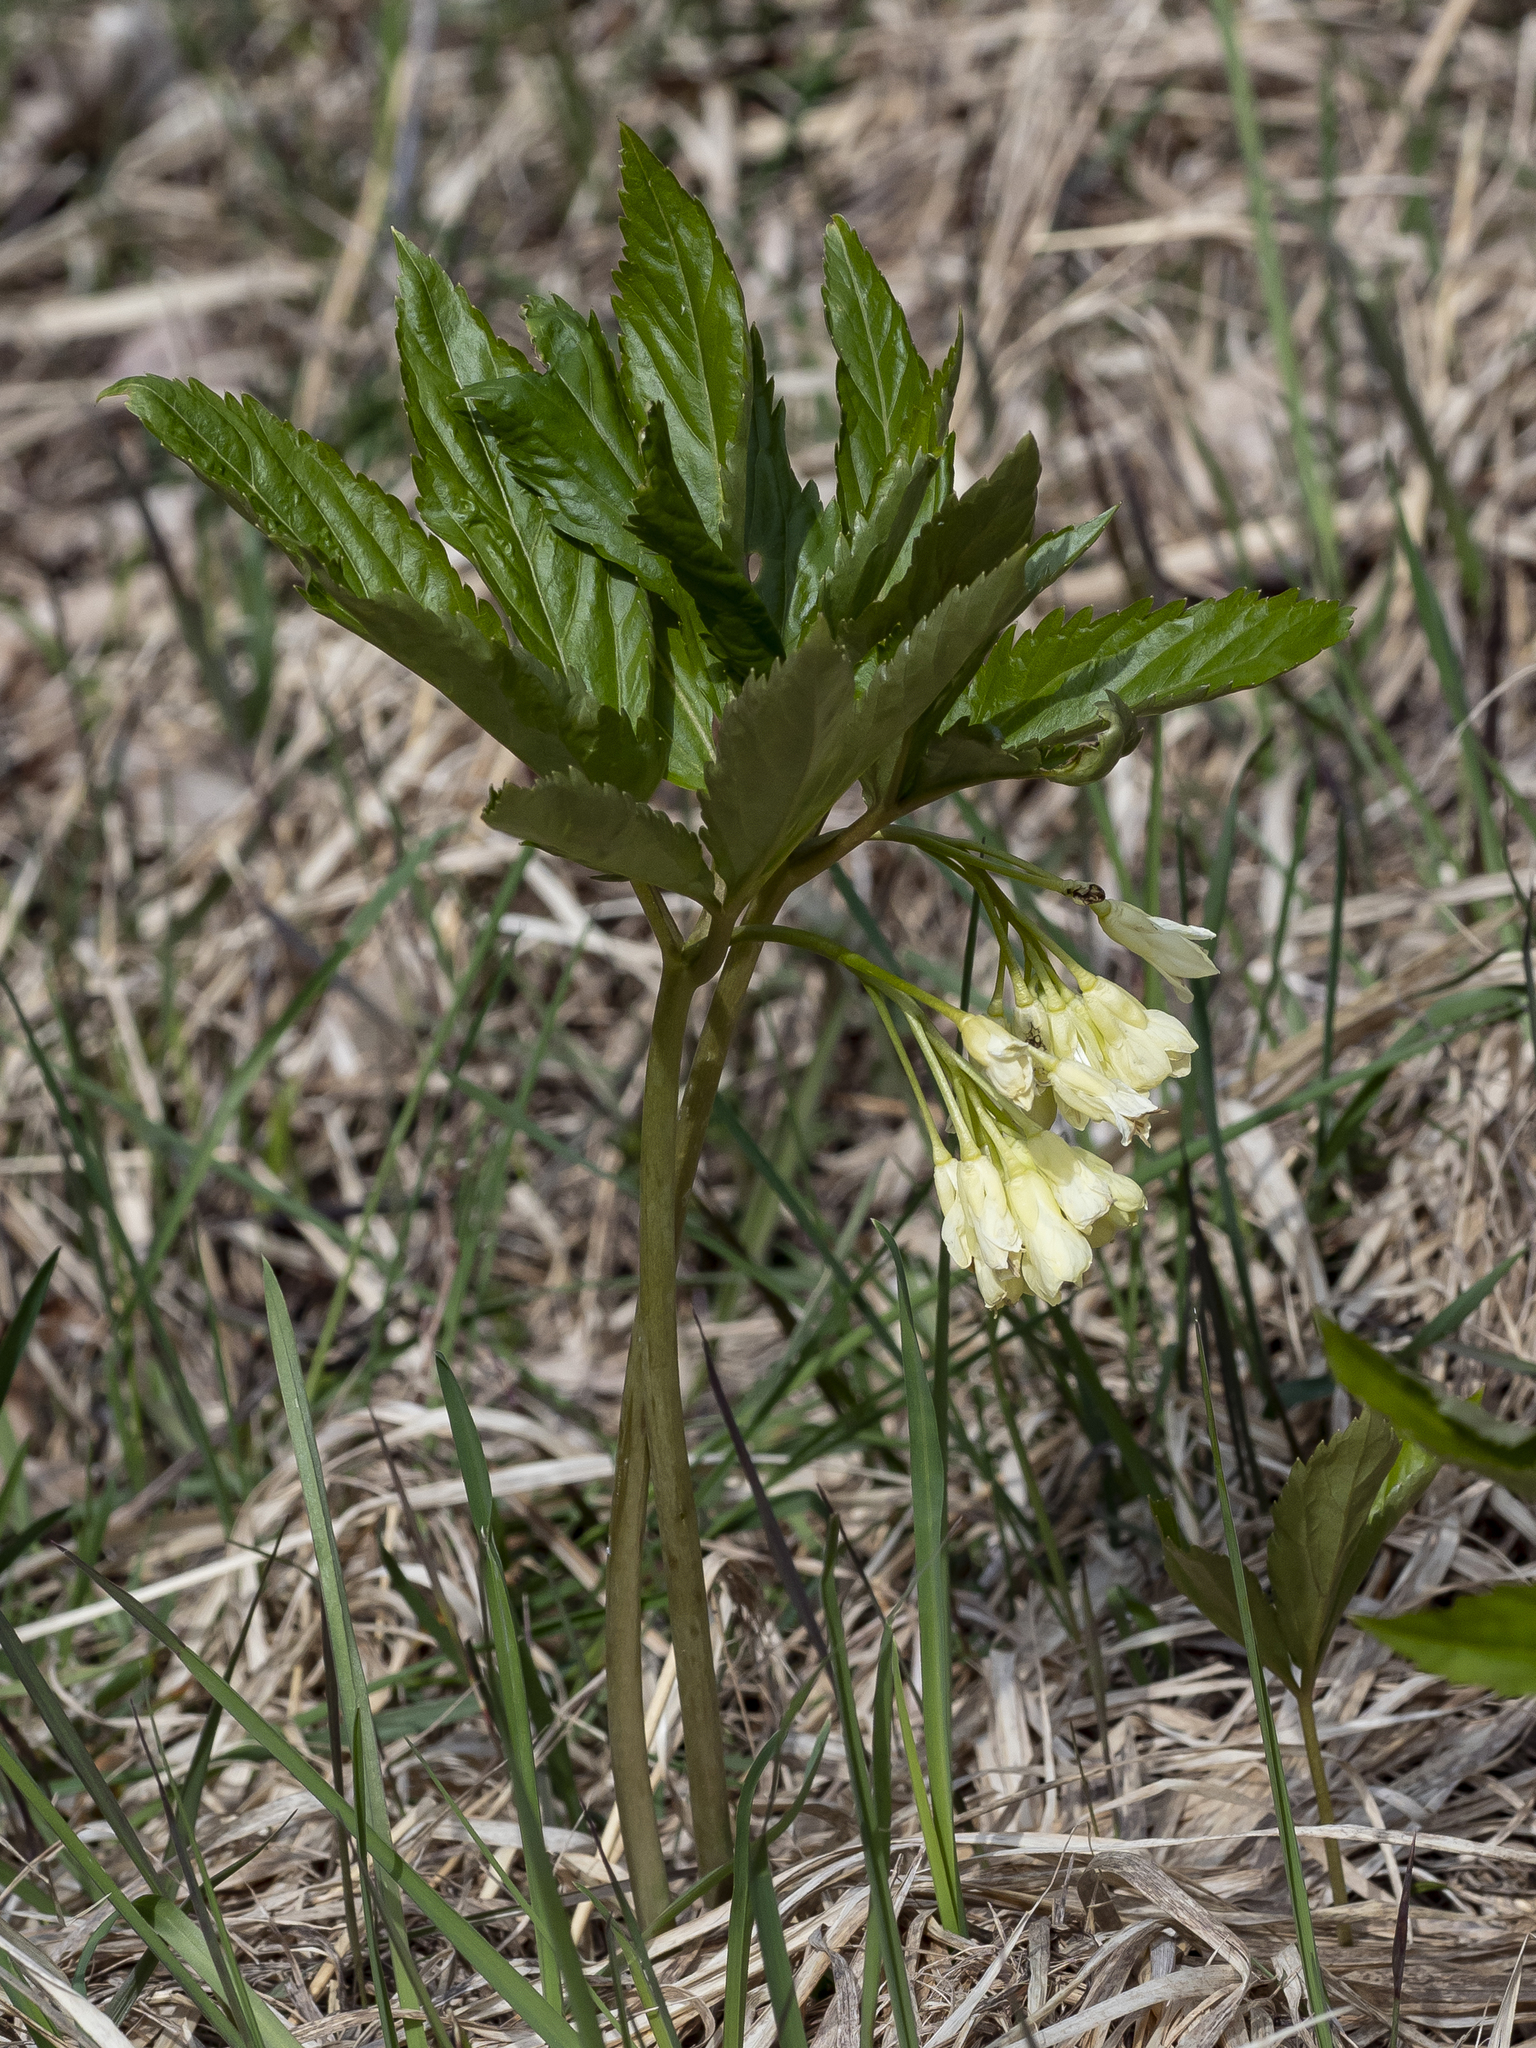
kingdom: Plantae
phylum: Tracheophyta
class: Magnoliopsida
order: Brassicales
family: Brassicaceae
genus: Cardamine
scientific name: Cardamine enneaphyllos
